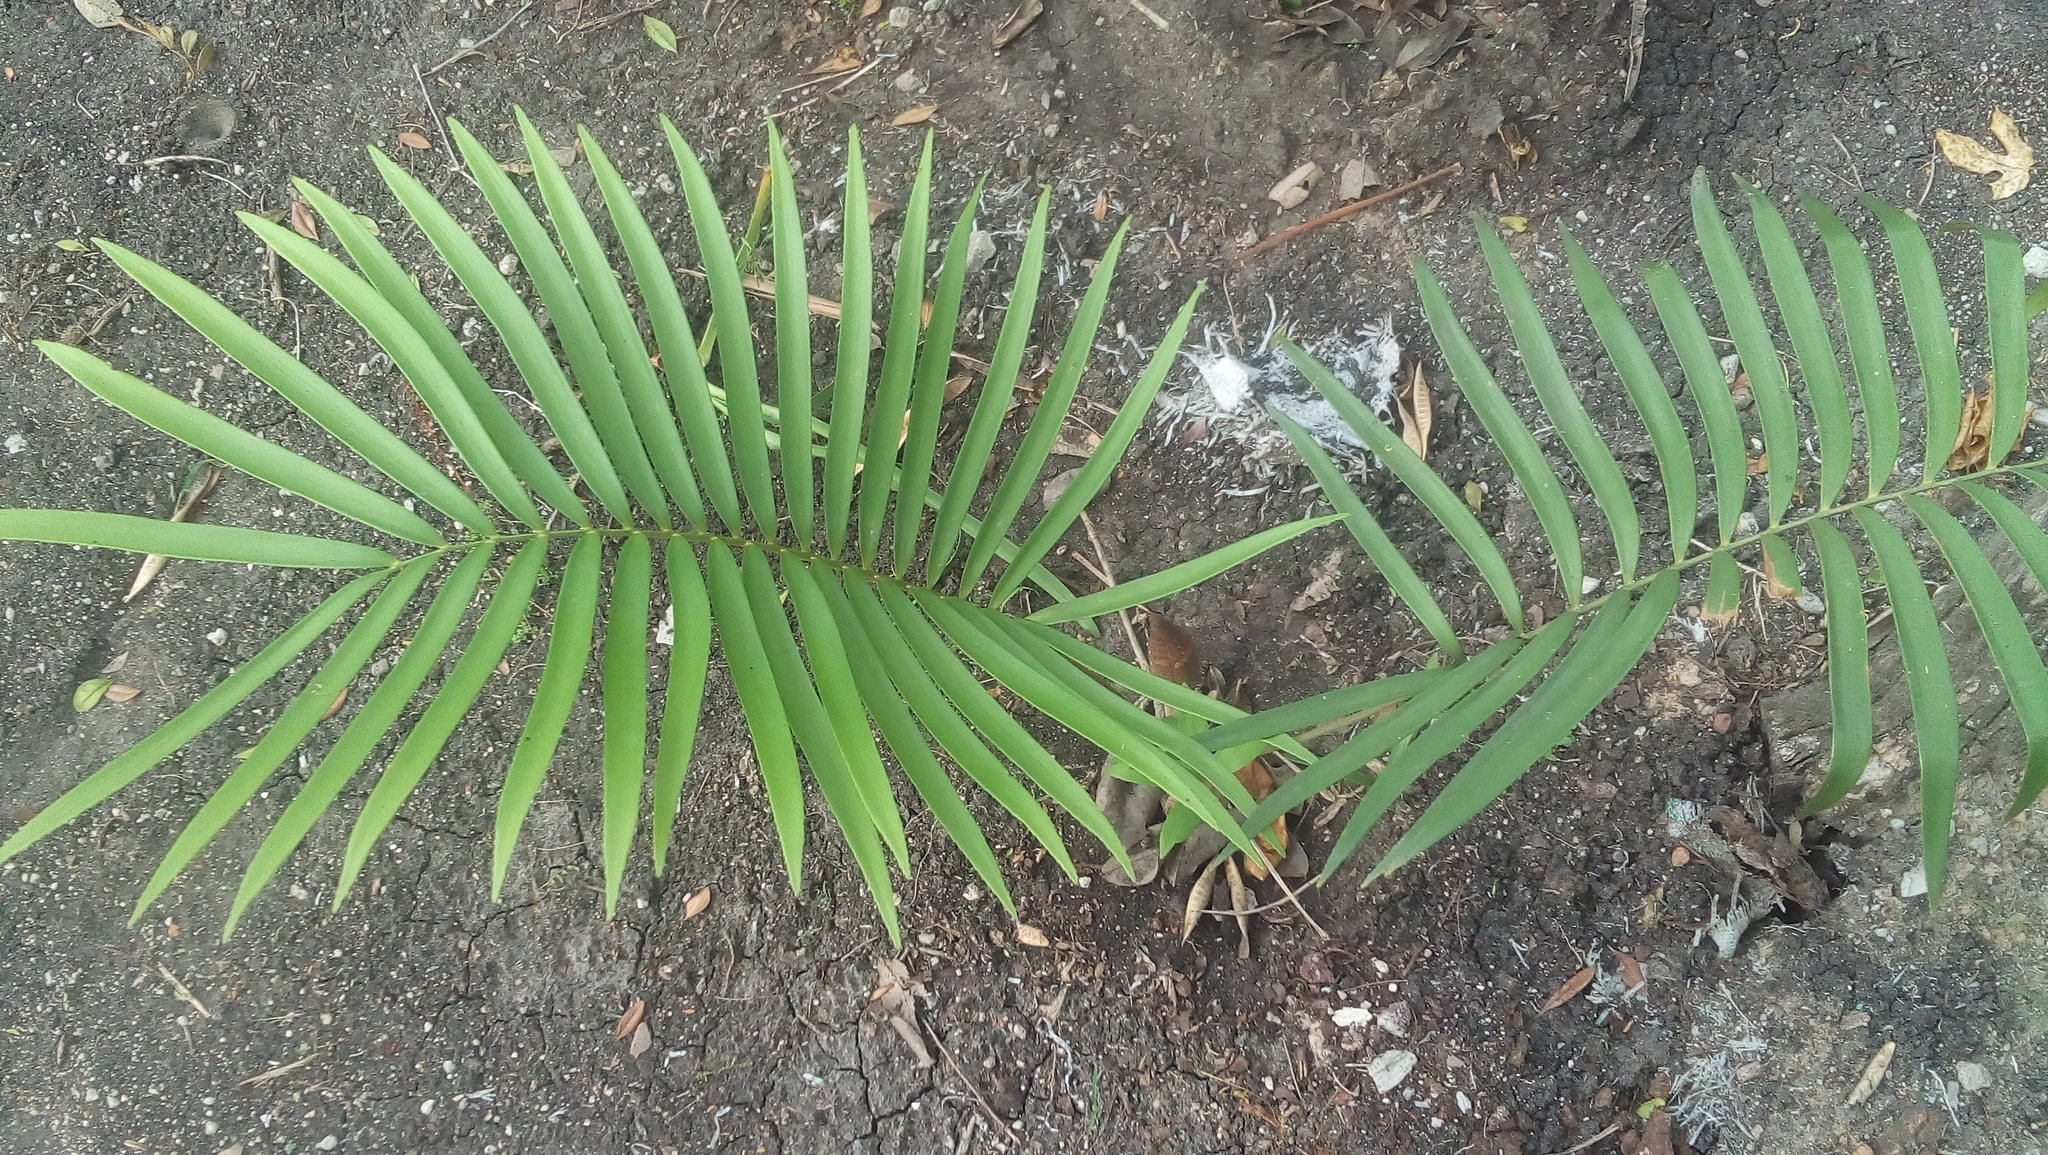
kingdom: Plantae
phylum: Tracheophyta
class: Cycadopsida
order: Cycadales
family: Zamiaceae
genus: Zamia
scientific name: Zamia loddigesii
